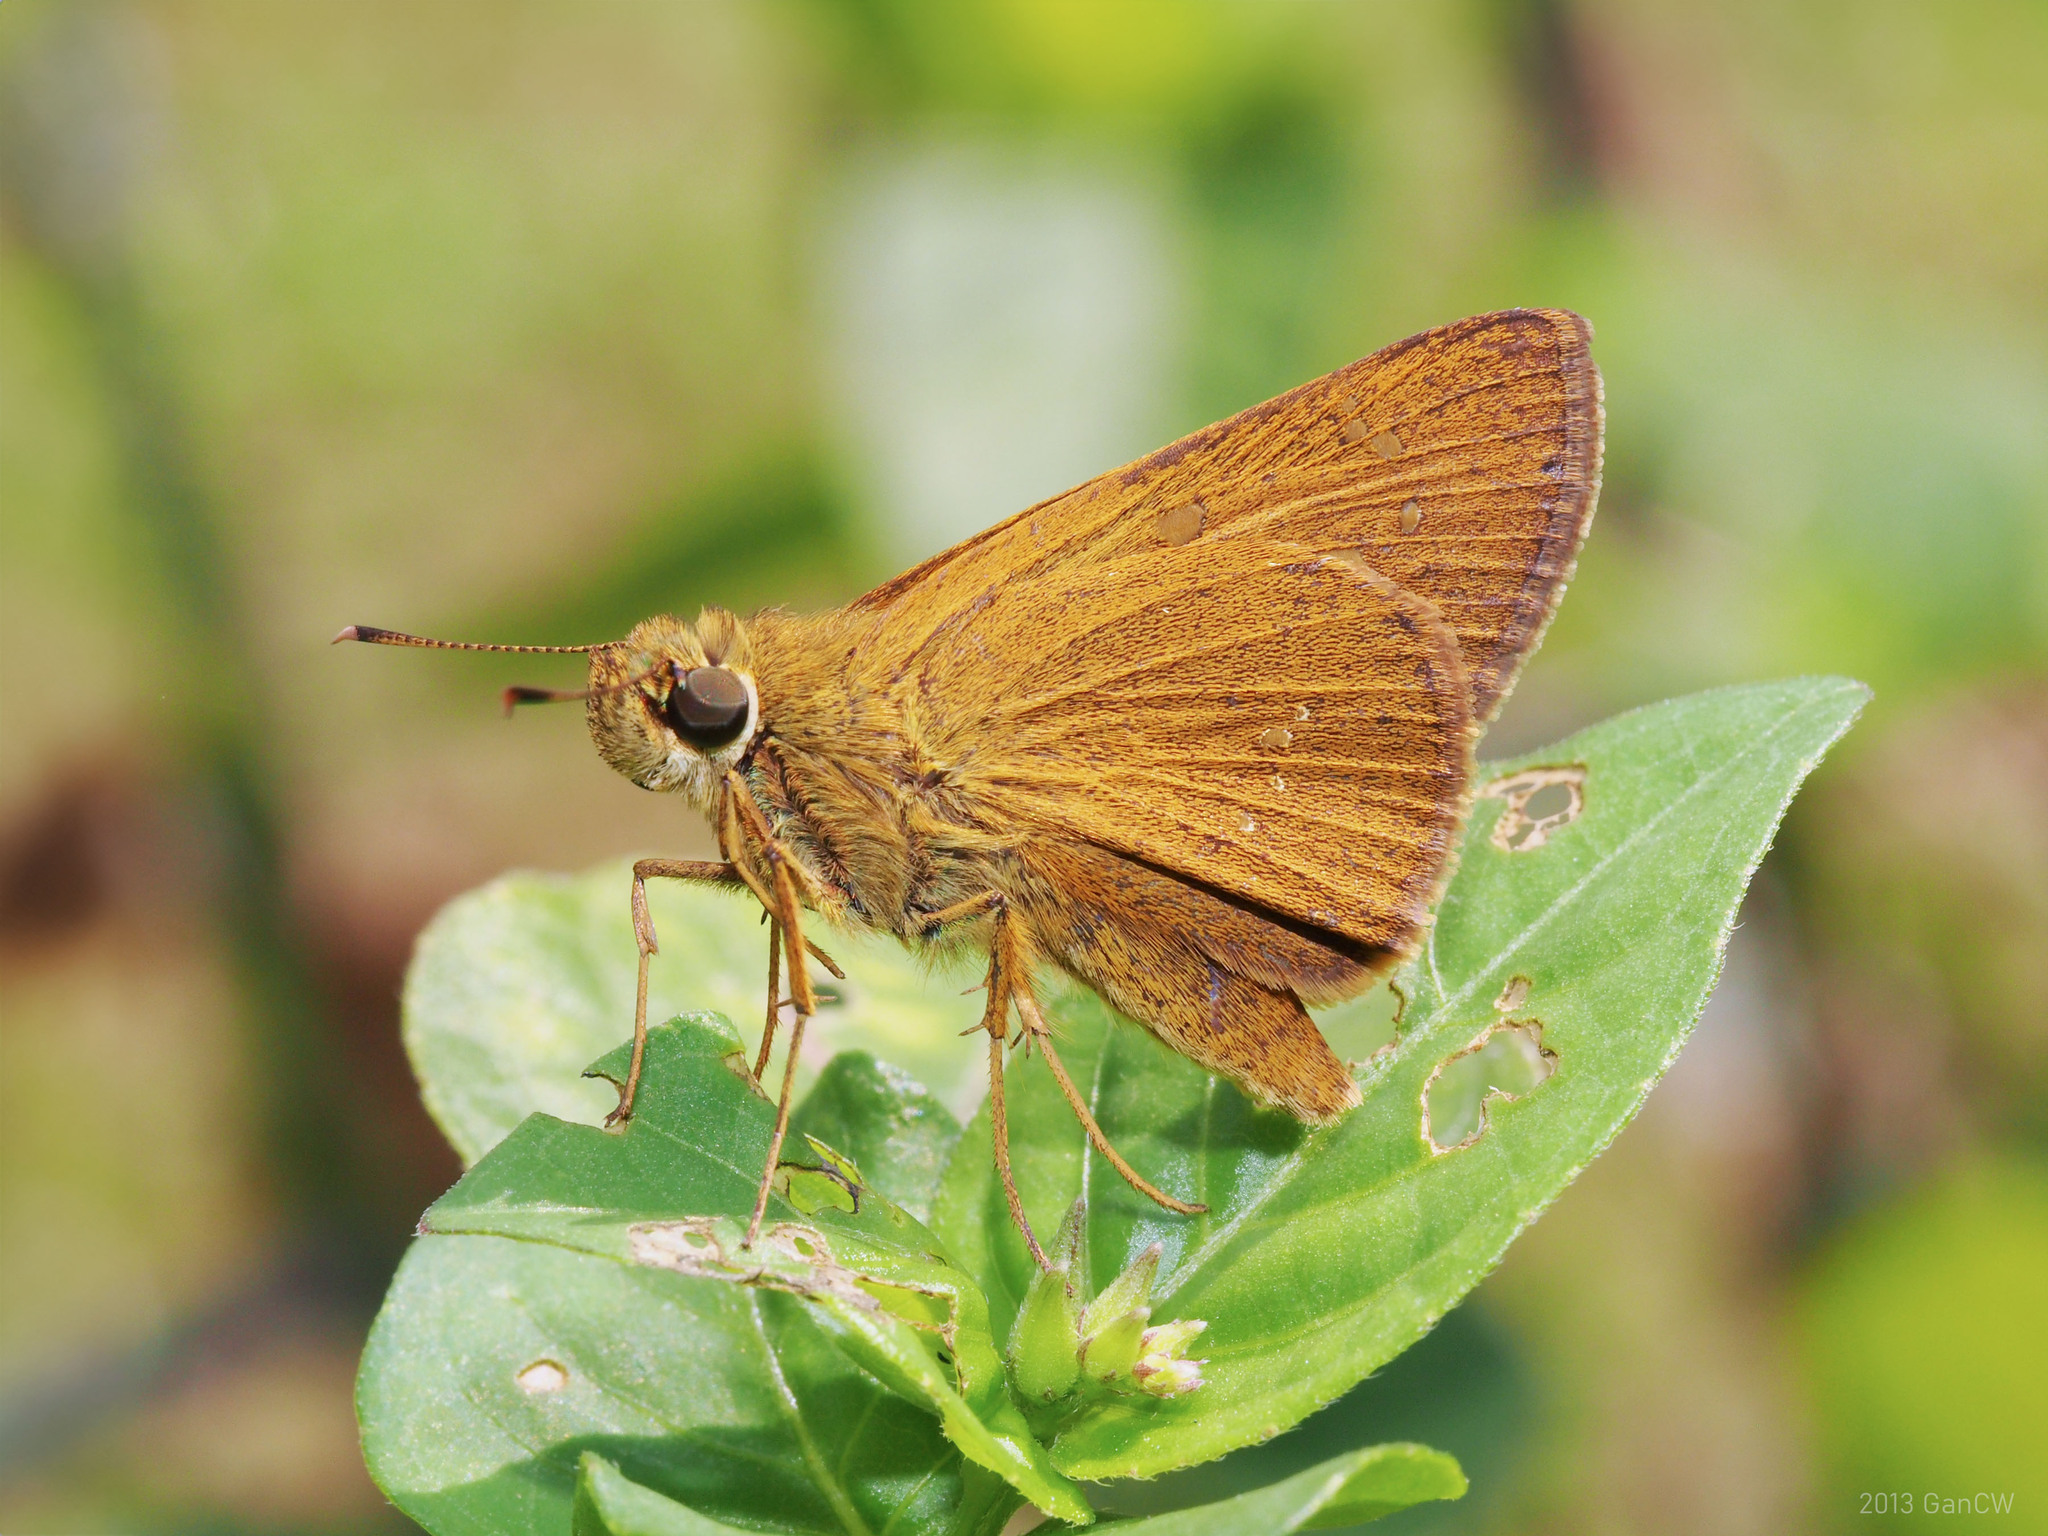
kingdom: Animalia
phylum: Arthropoda
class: Insecta
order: Lepidoptera
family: Hesperiidae
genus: Polytremis
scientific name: Polytremis lubricans
